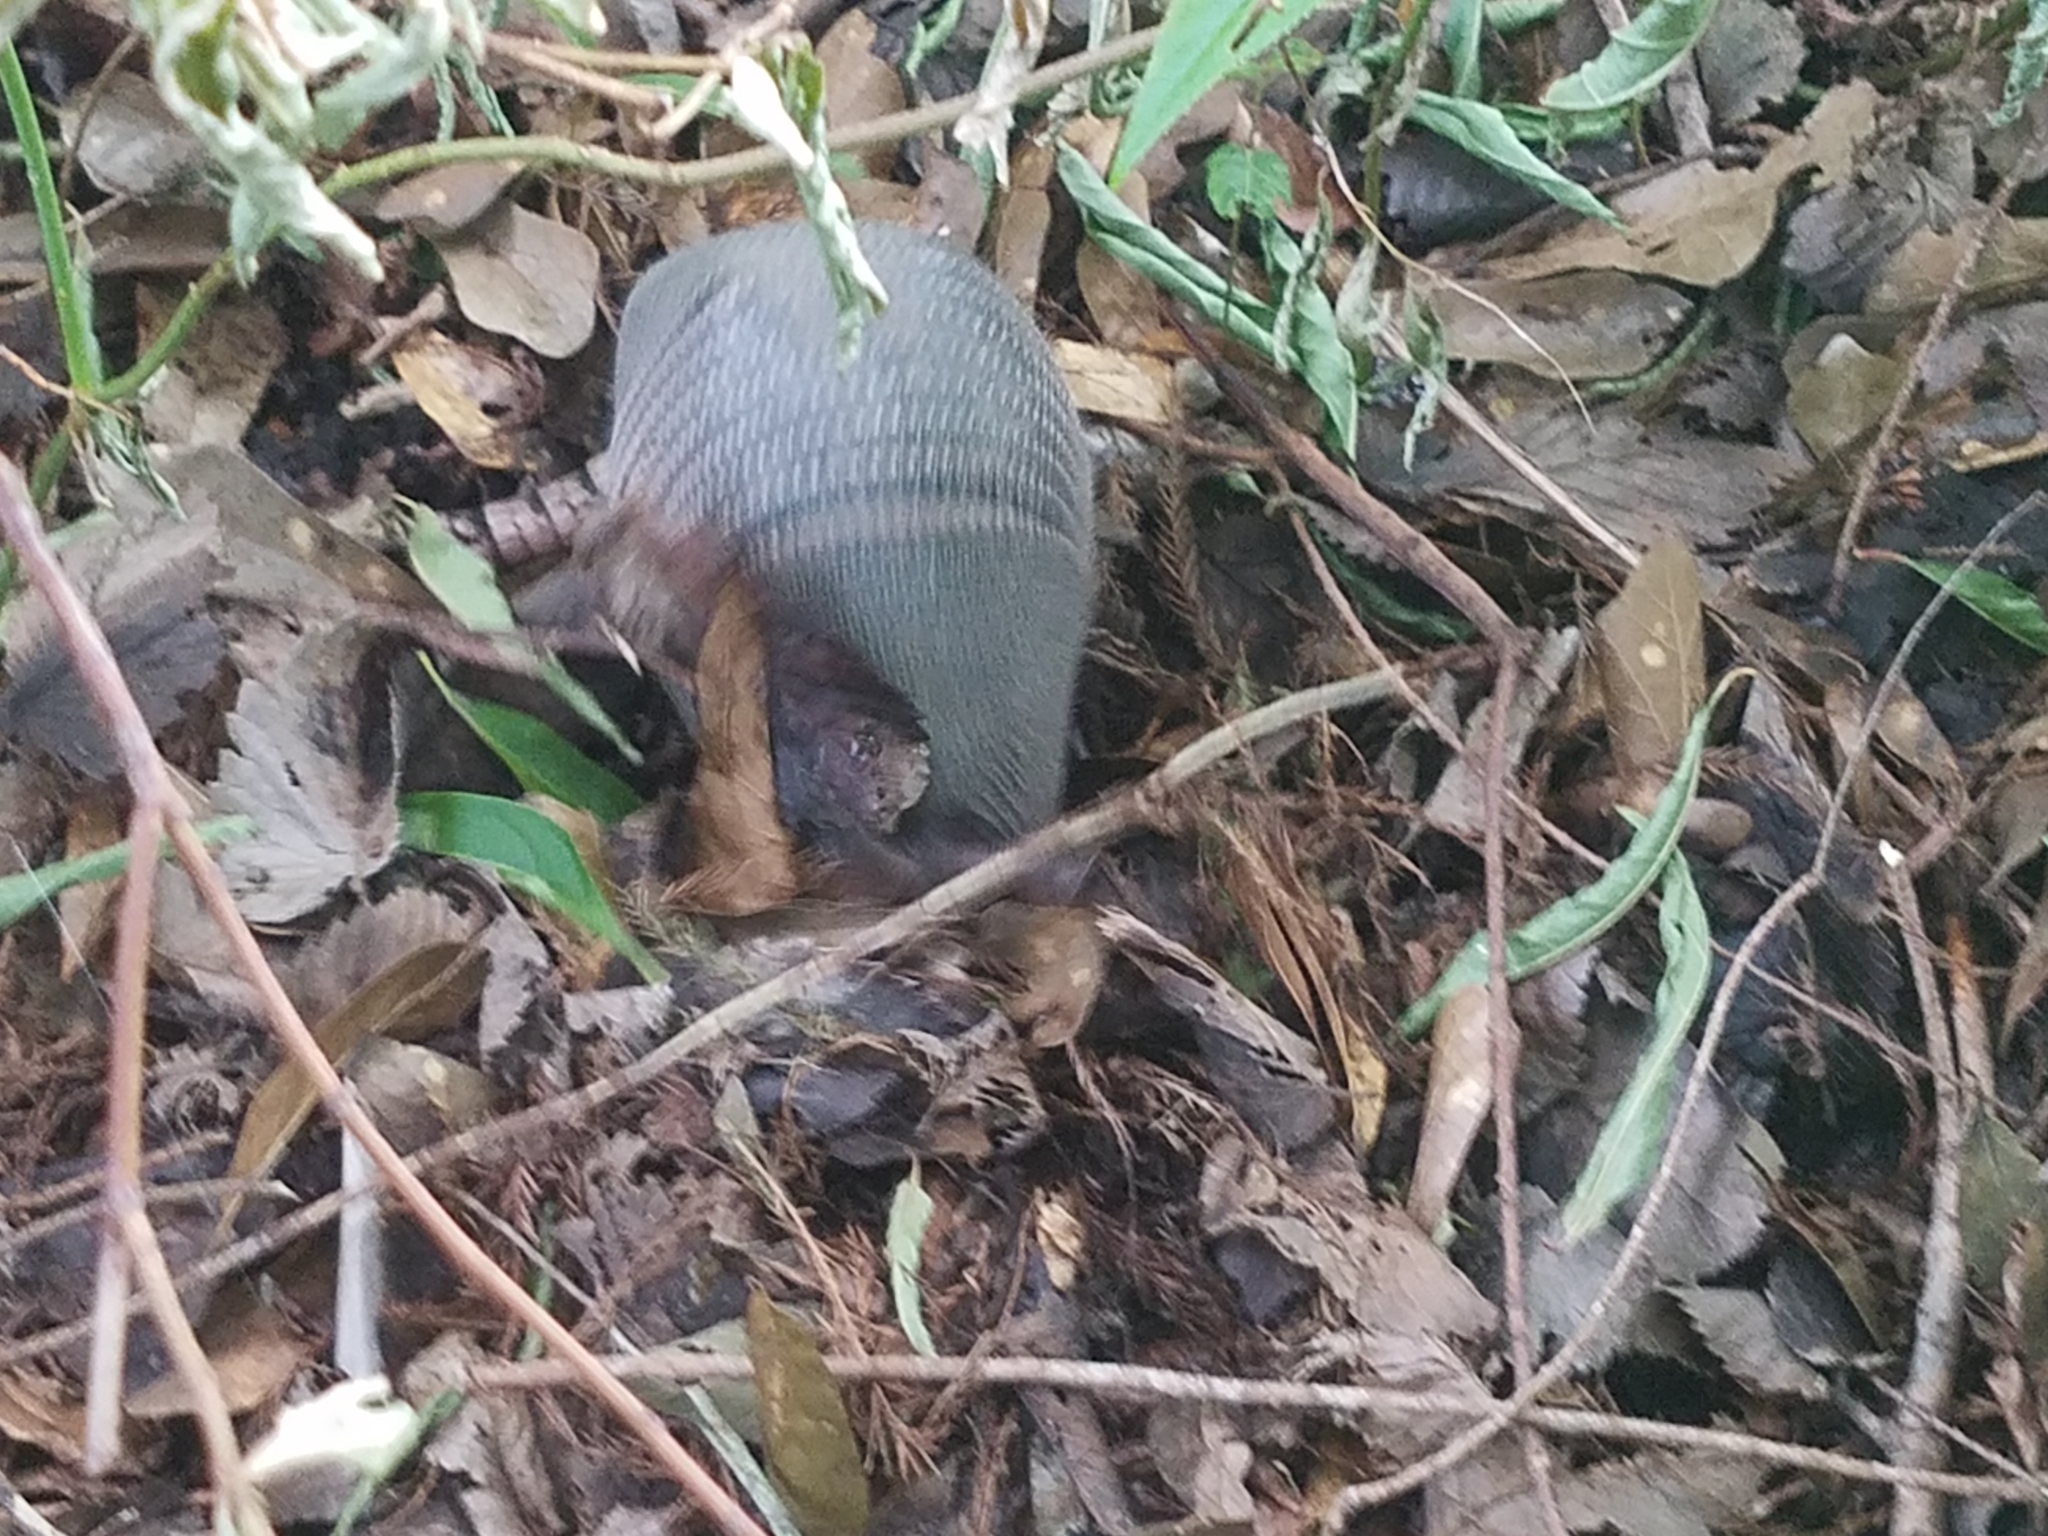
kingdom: Animalia
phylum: Chordata
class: Mammalia
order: Cingulata
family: Dasypodidae
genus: Dasypus
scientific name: Dasypus novemcinctus
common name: Nine-banded armadillo
